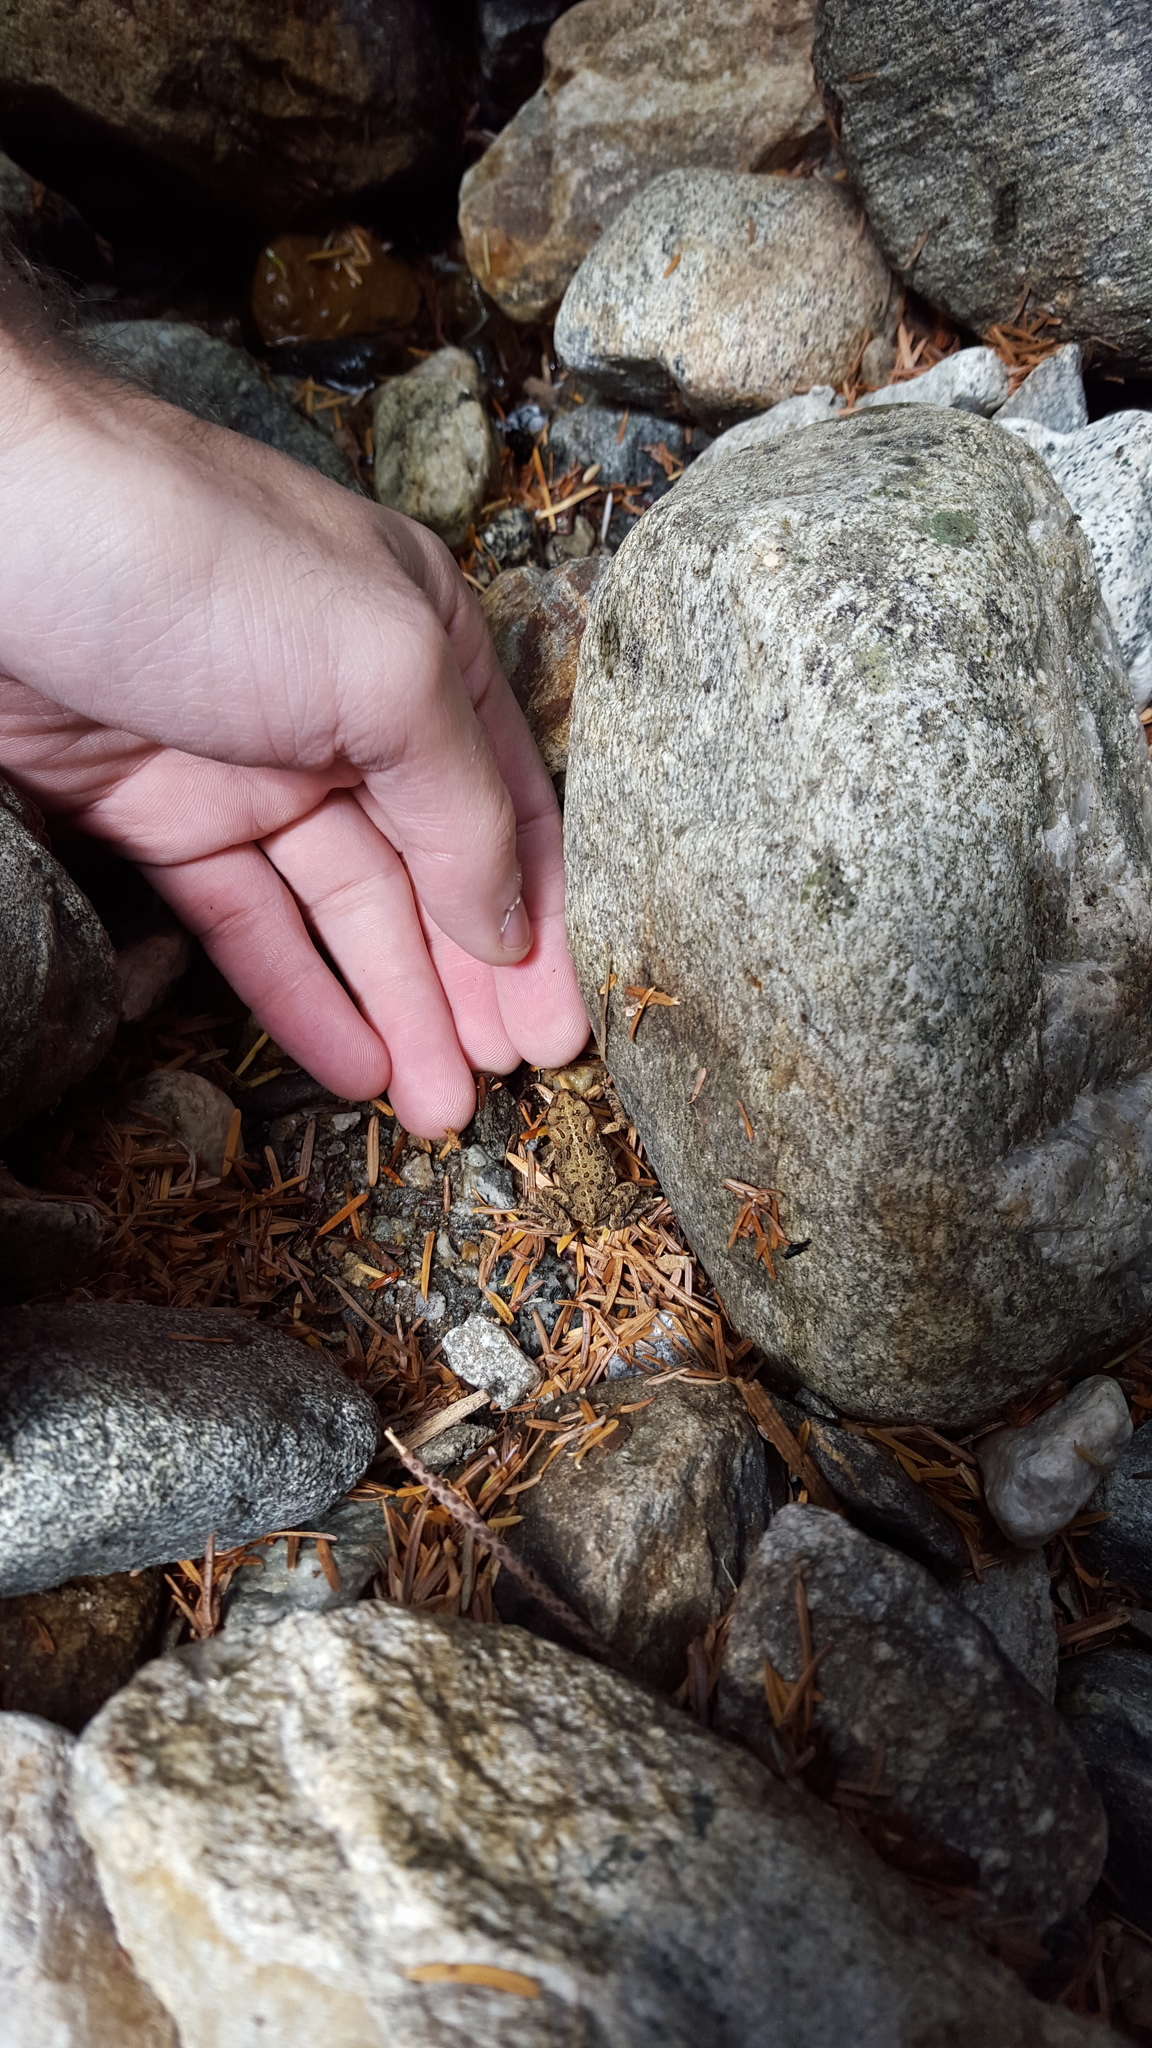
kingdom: Animalia
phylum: Chordata
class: Amphibia
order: Anura
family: Bufonidae
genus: Anaxyrus
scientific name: Anaxyrus boreas
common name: Western toad
